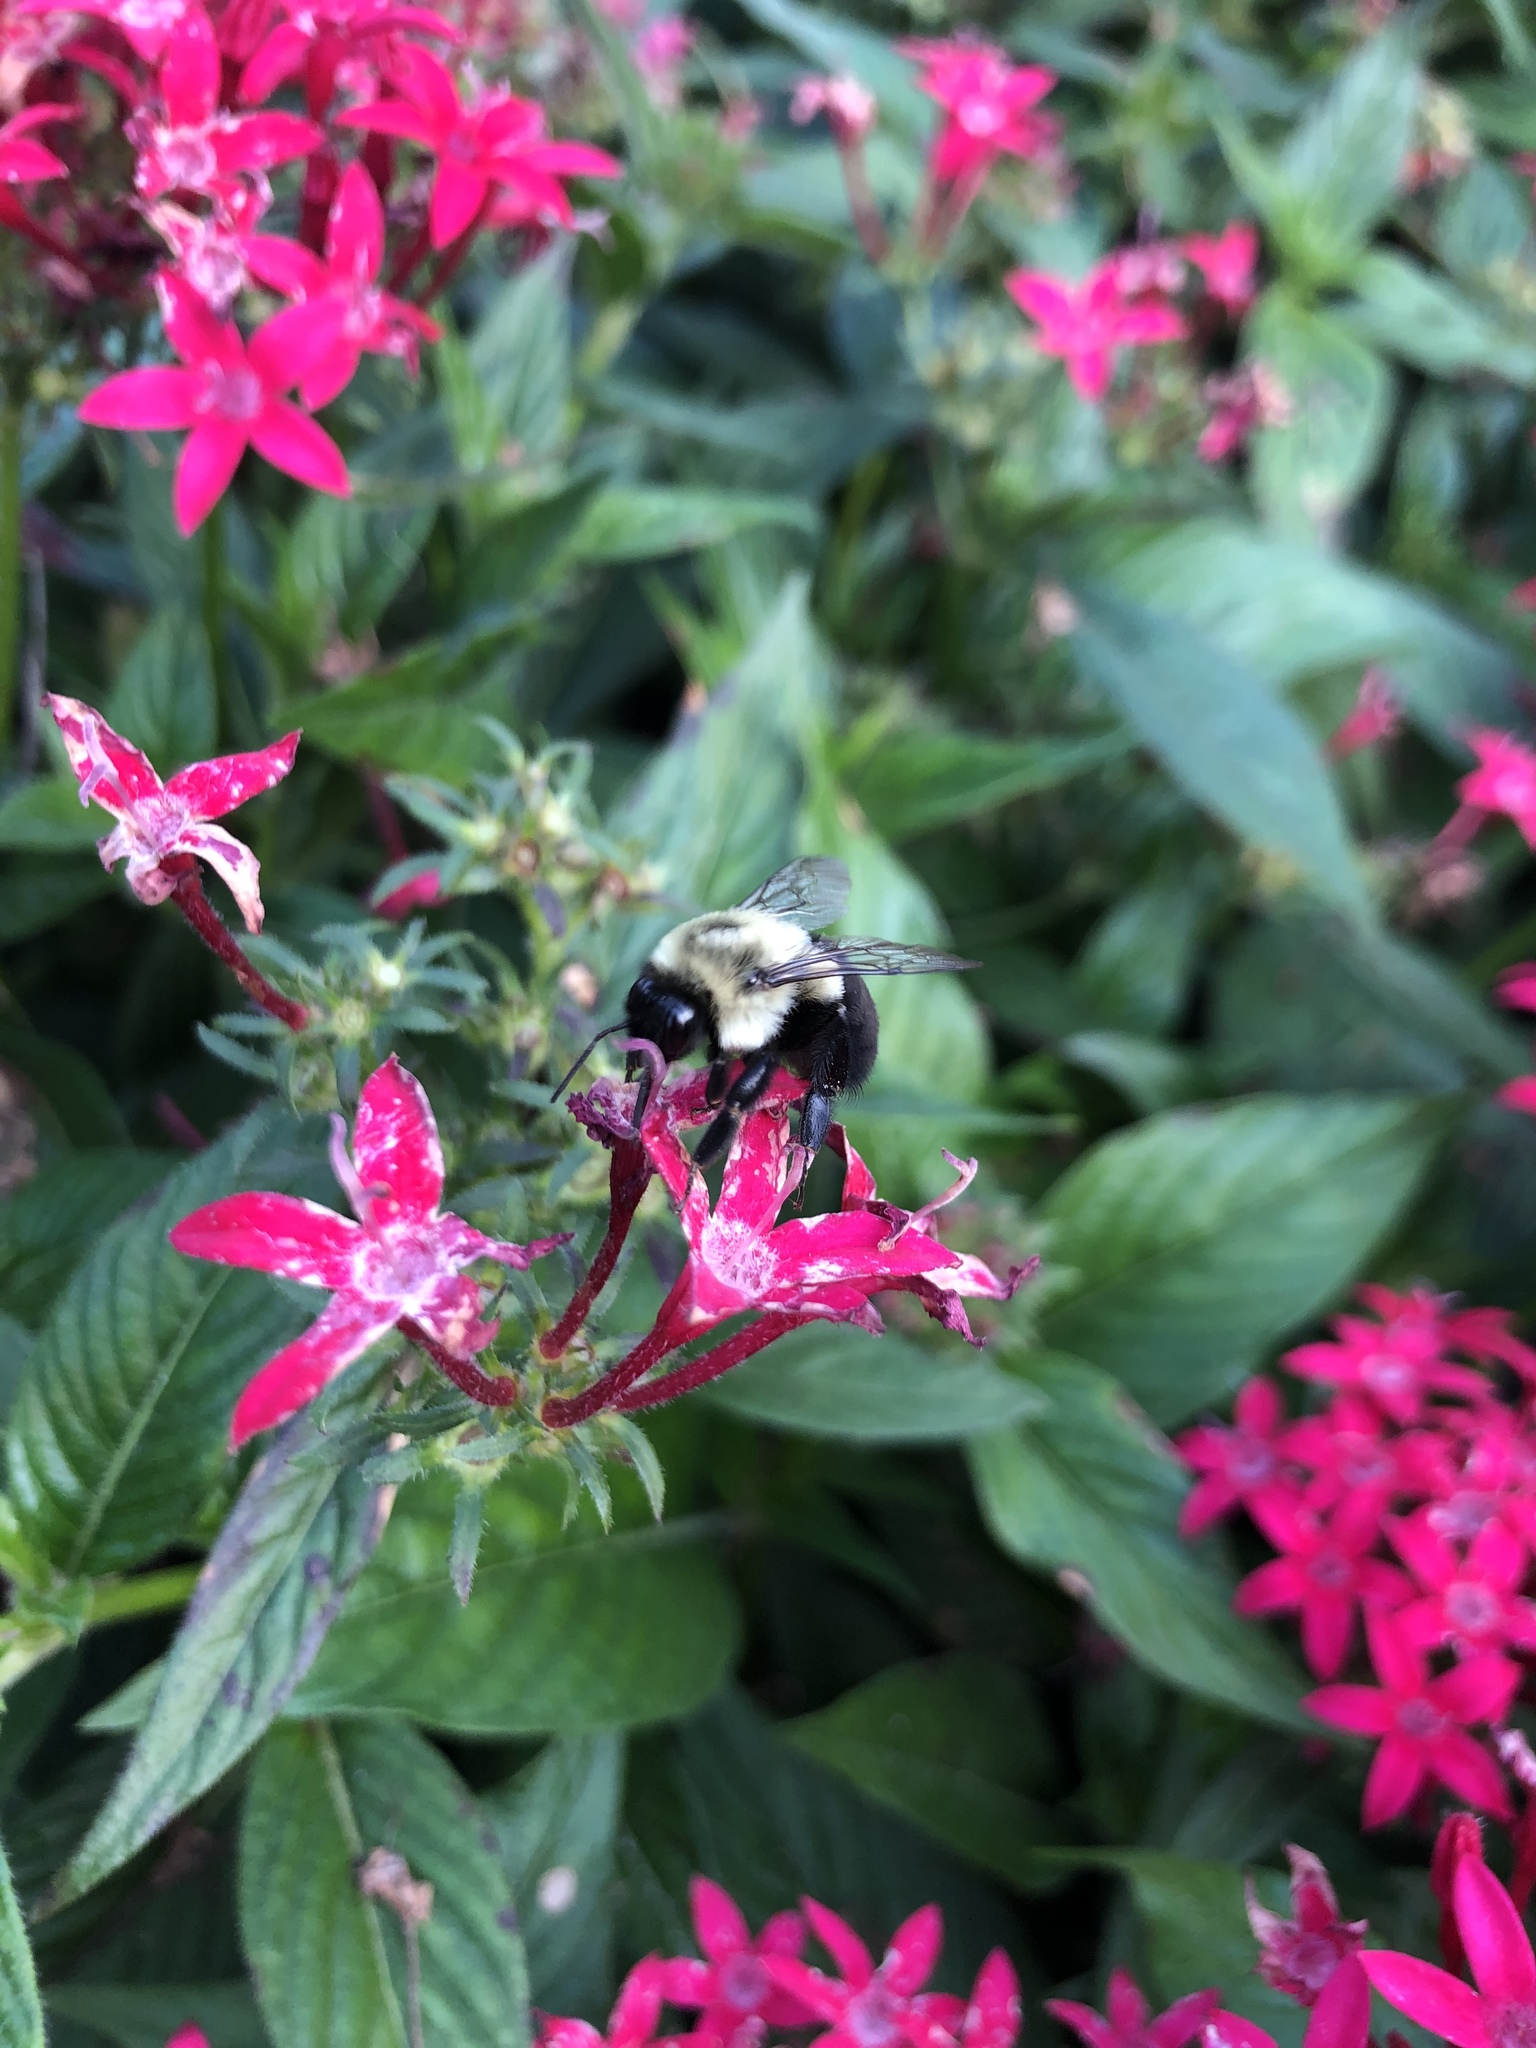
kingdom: Animalia
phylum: Arthropoda
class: Insecta
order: Hymenoptera
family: Apidae
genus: Bombus
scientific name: Bombus impatiens
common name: Common eastern bumble bee
